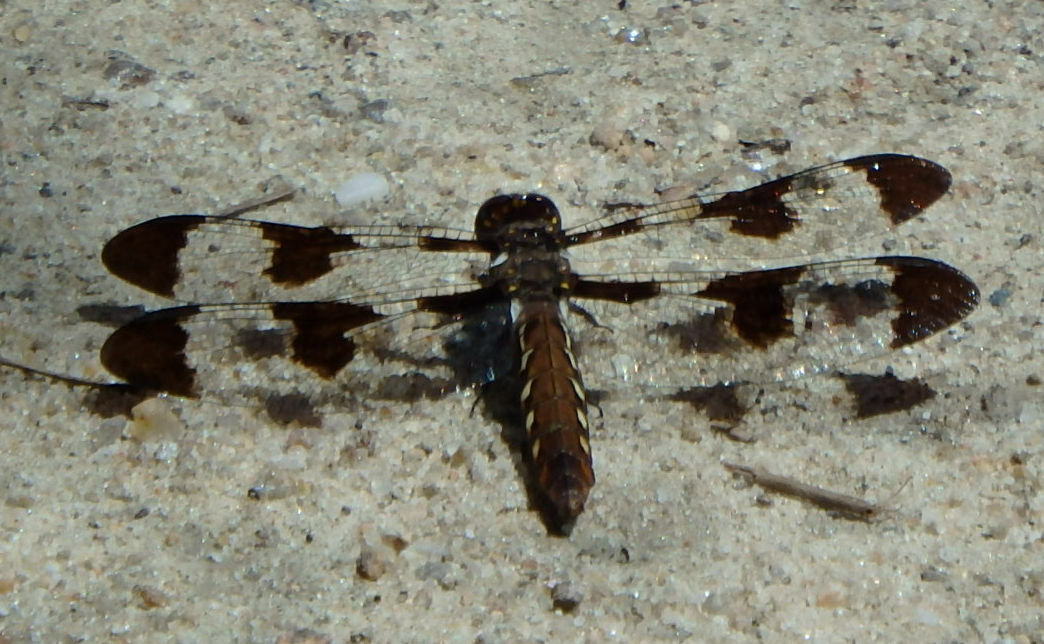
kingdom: Animalia
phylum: Arthropoda
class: Insecta
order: Odonata
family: Libellulidae
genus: Plathemis
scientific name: Plathemis lydia
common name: Common whitetail
